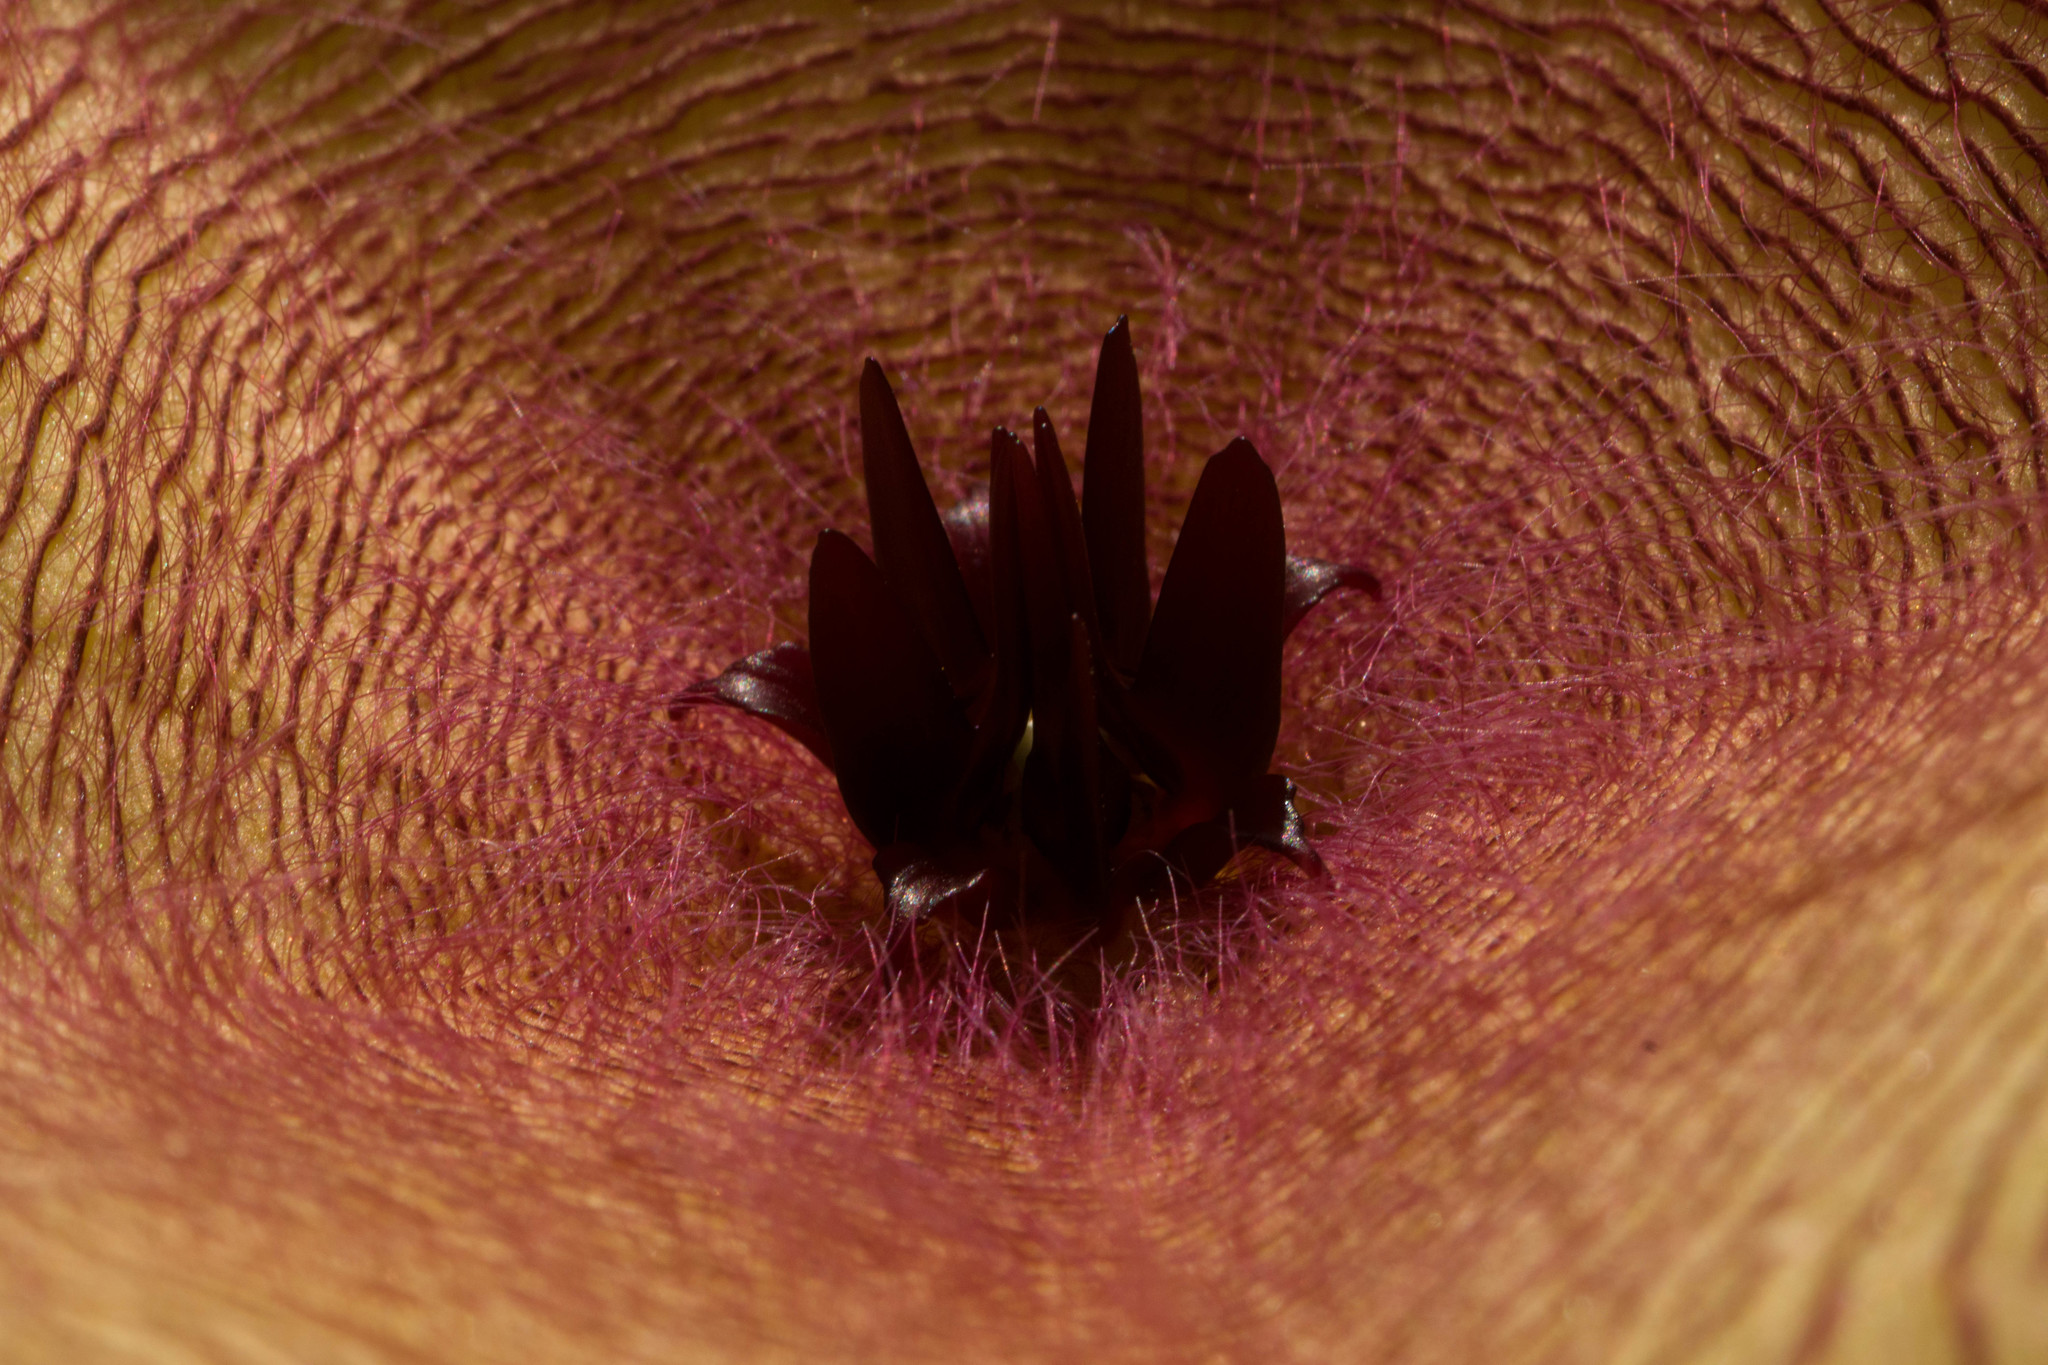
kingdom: Plantae
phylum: Tracheophyta
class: Magnoliopsida
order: Gentianales
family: Apocynaceae
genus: Ceropegia
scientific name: Ceropegia gigantea
